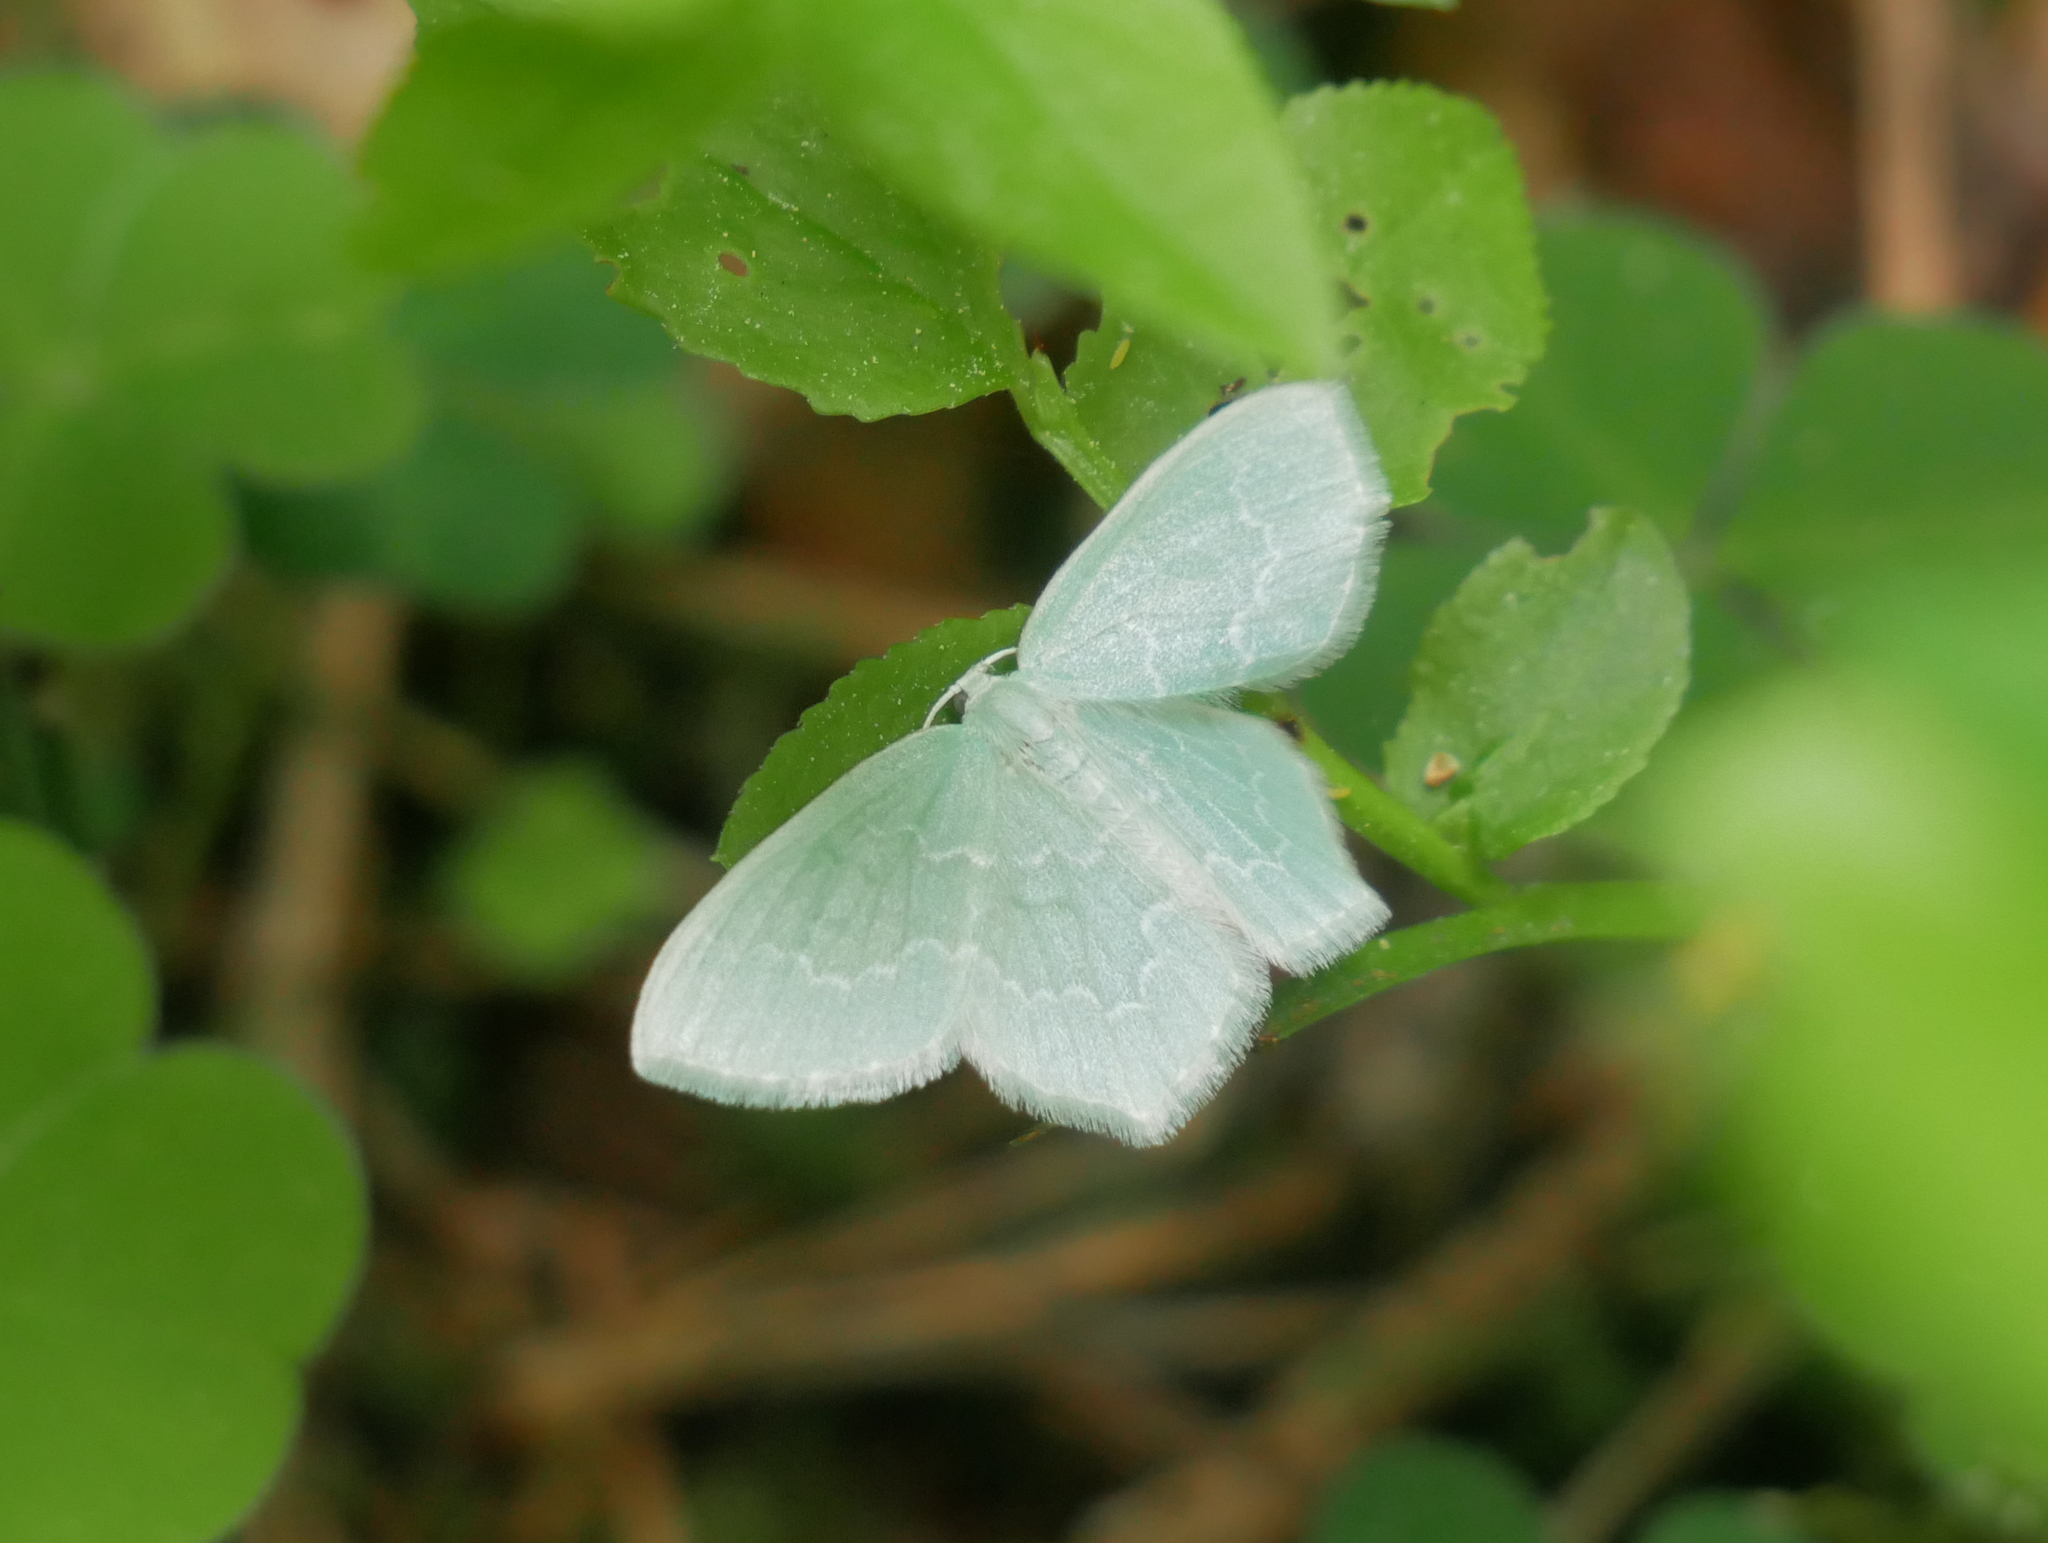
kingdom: Animalia
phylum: Arthropoda
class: Insecta
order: Lepidoptera
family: Geometridae
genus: Jodis
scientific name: Jodis putata
